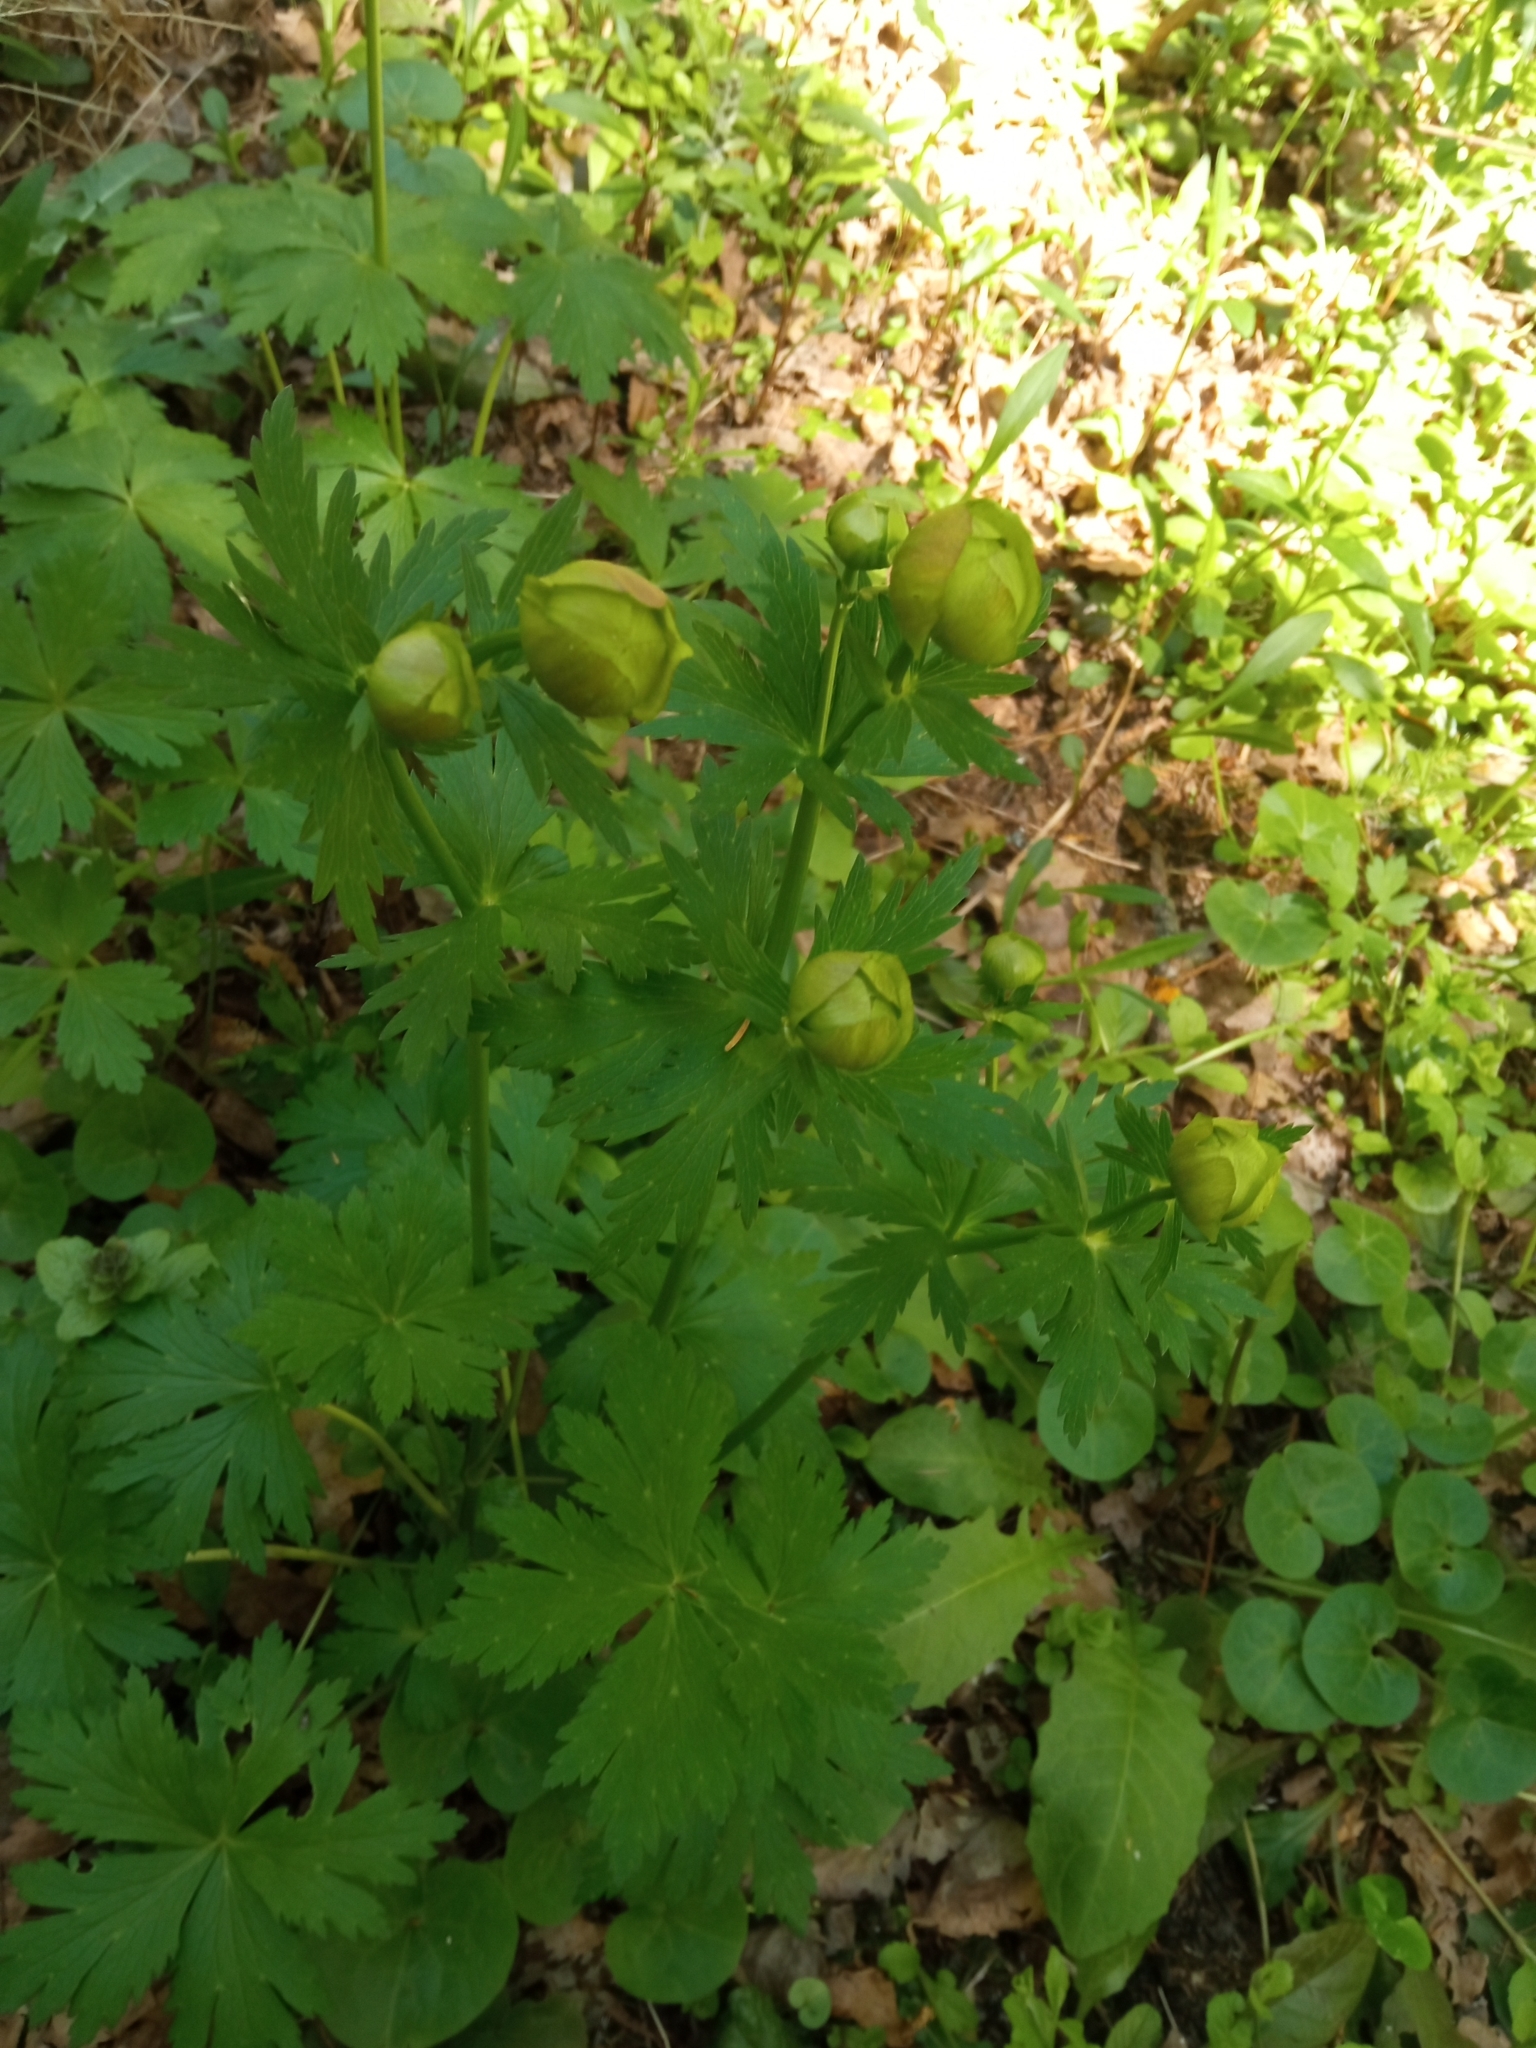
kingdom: Plantae
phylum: Tracheophyta
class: Magnoliopsida
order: Ranunculales
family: Ranunculaceae
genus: Trollius
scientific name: Trollius europaeus
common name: European globeflower
